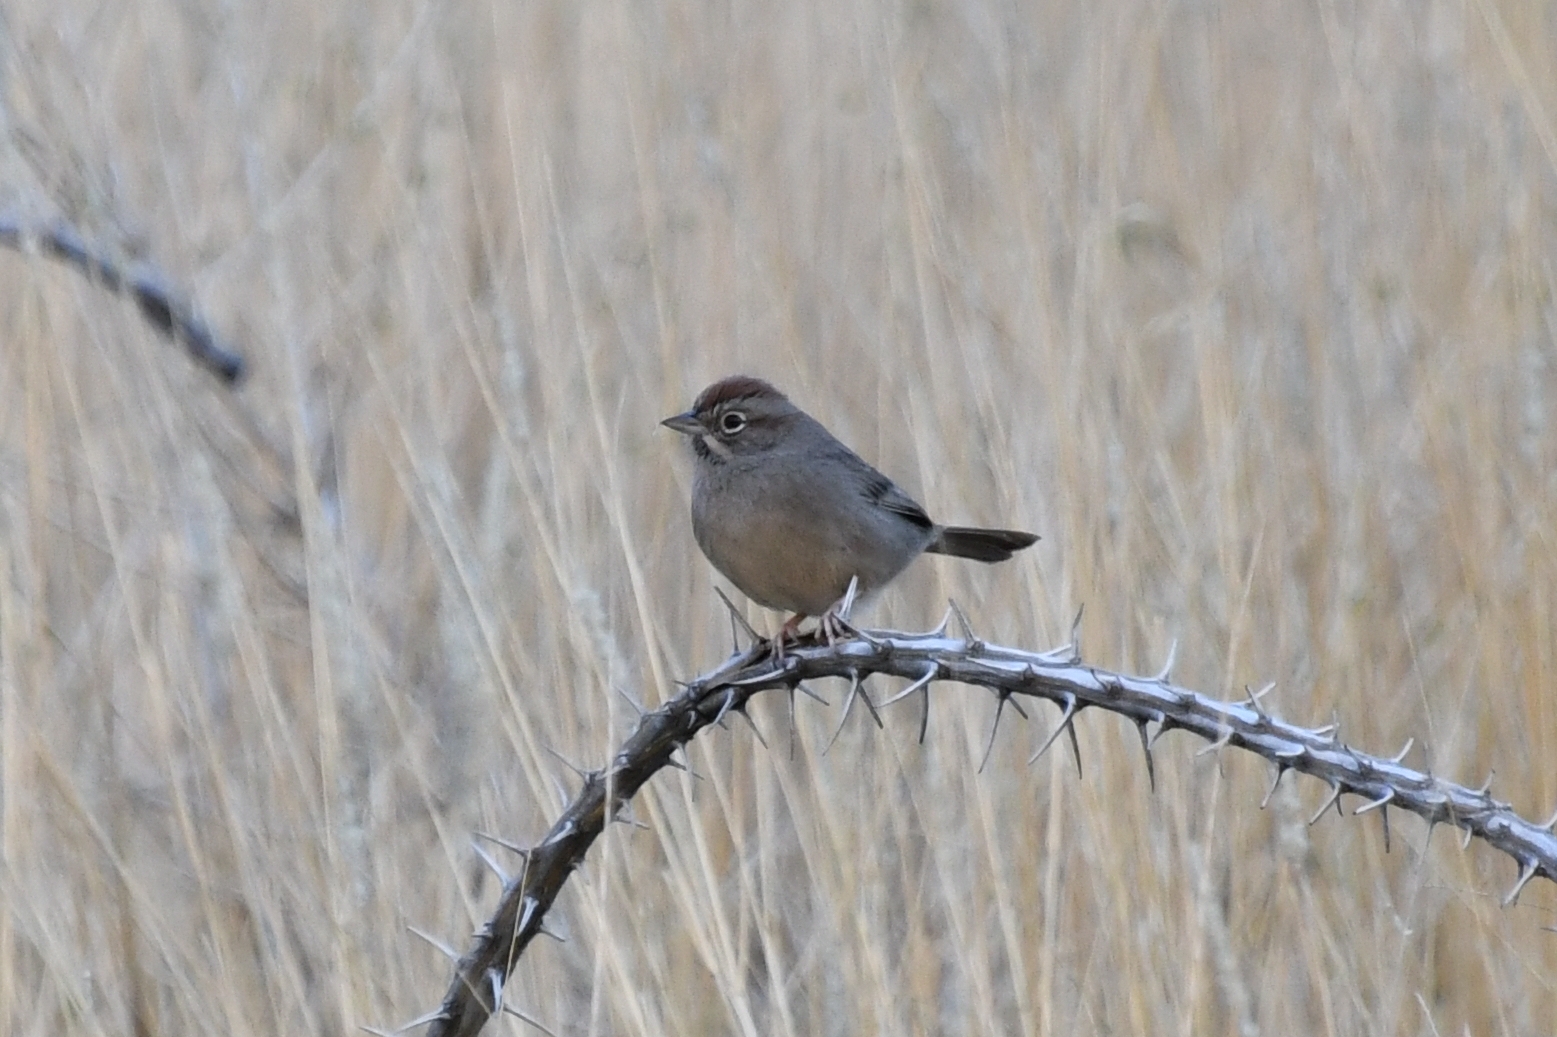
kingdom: Animalia
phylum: Chordata
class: Aves
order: Passeriformes
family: Passerellidae
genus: Aimophila
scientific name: Aimophila ruficeps
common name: Rufous-crowned sparrow
